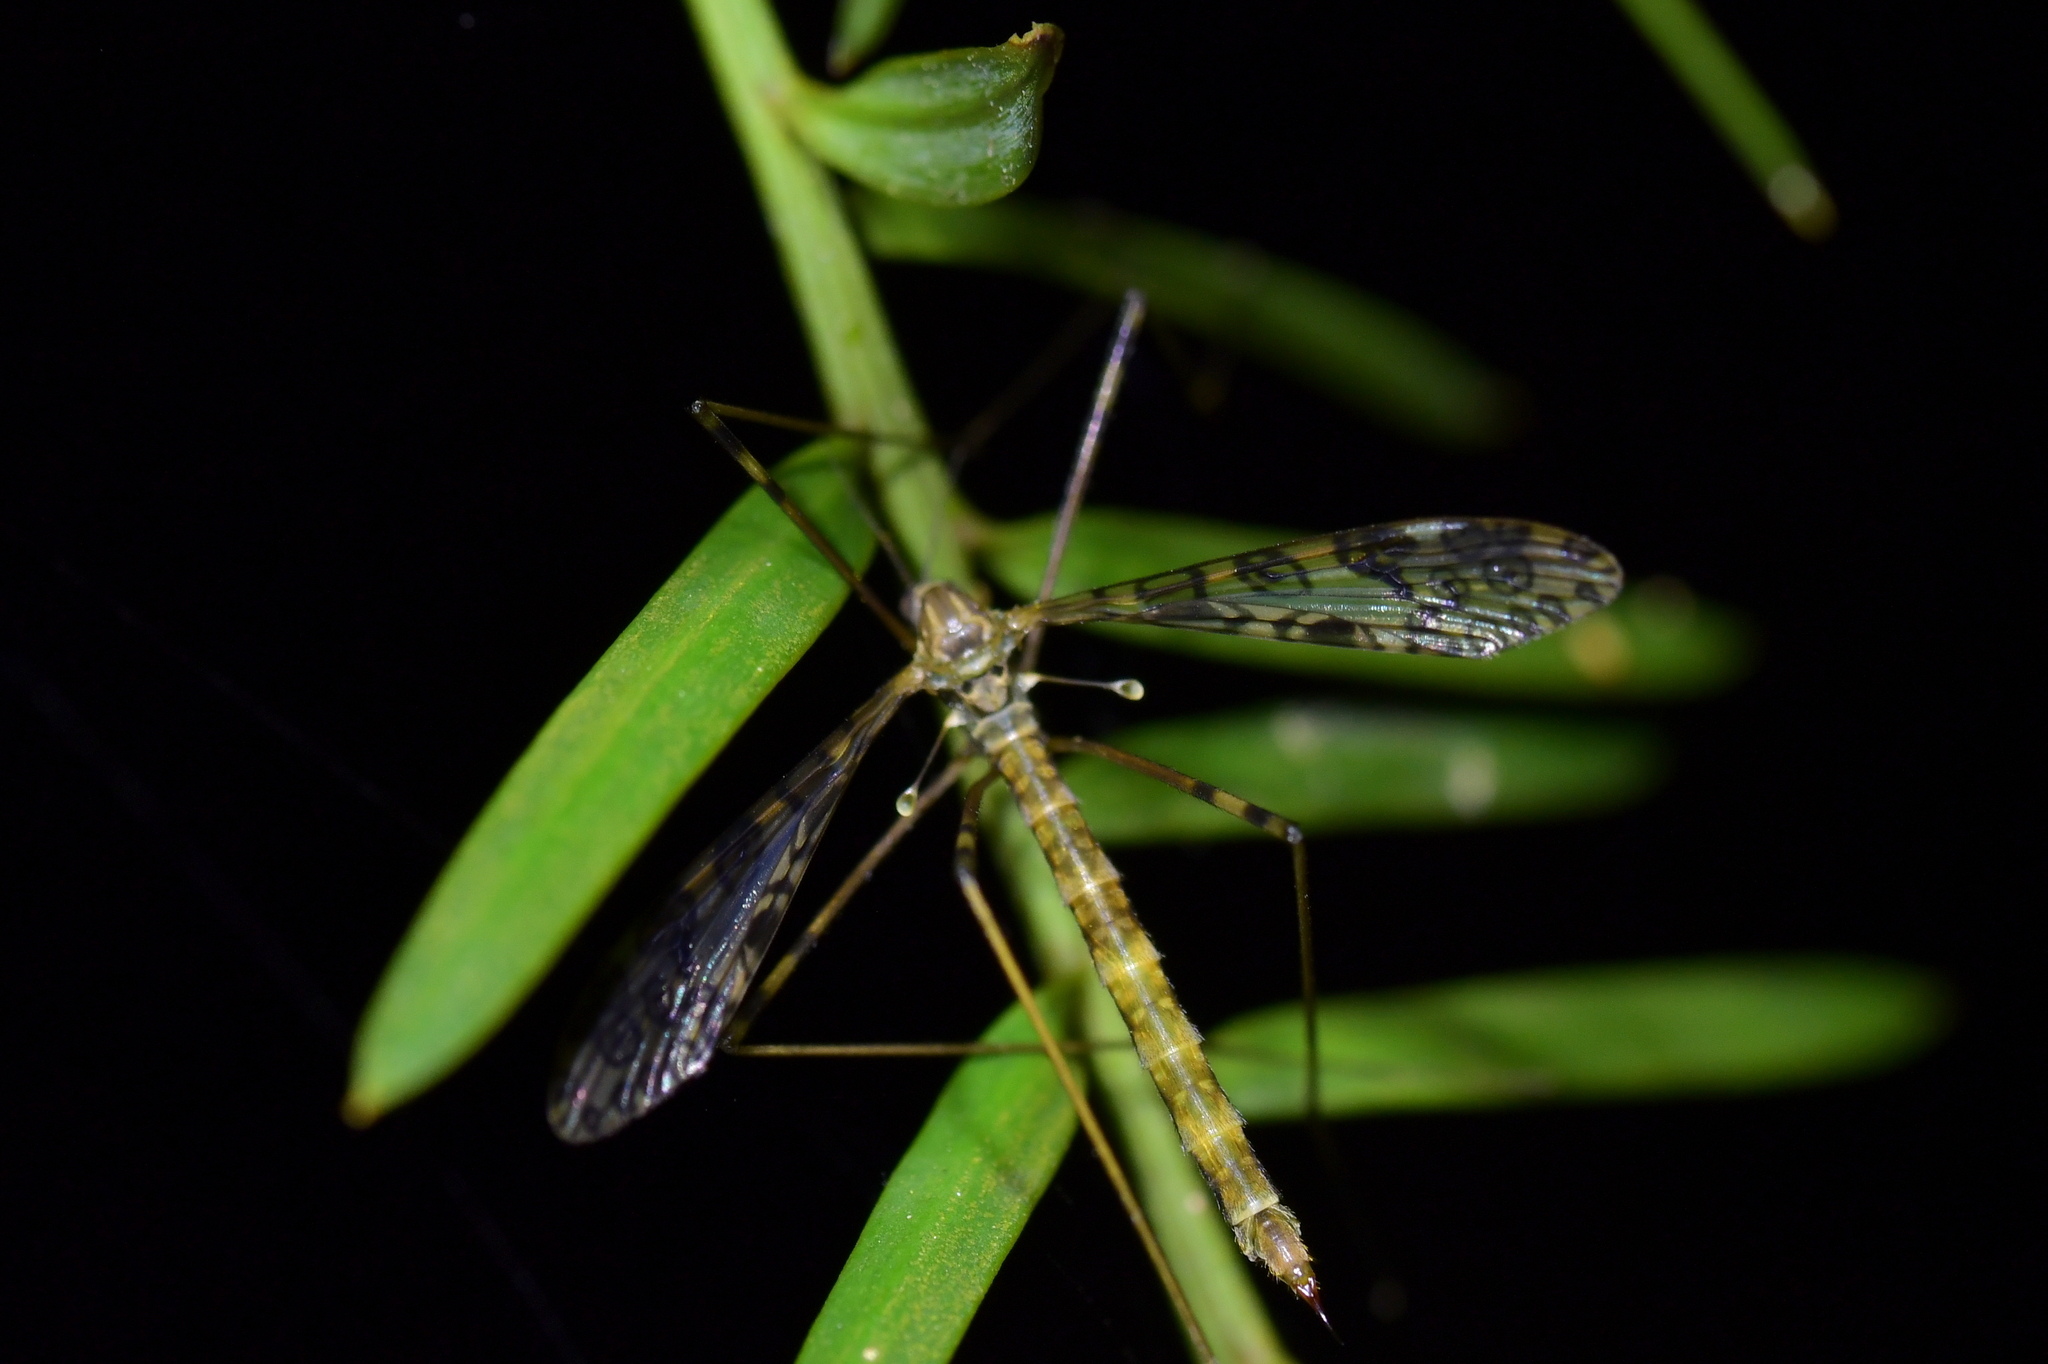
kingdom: Animalia
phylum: Arthropoda
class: Insecta
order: Diptera
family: Limoniidae
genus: Austrolimnophila
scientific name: Austrolimnophila argus
